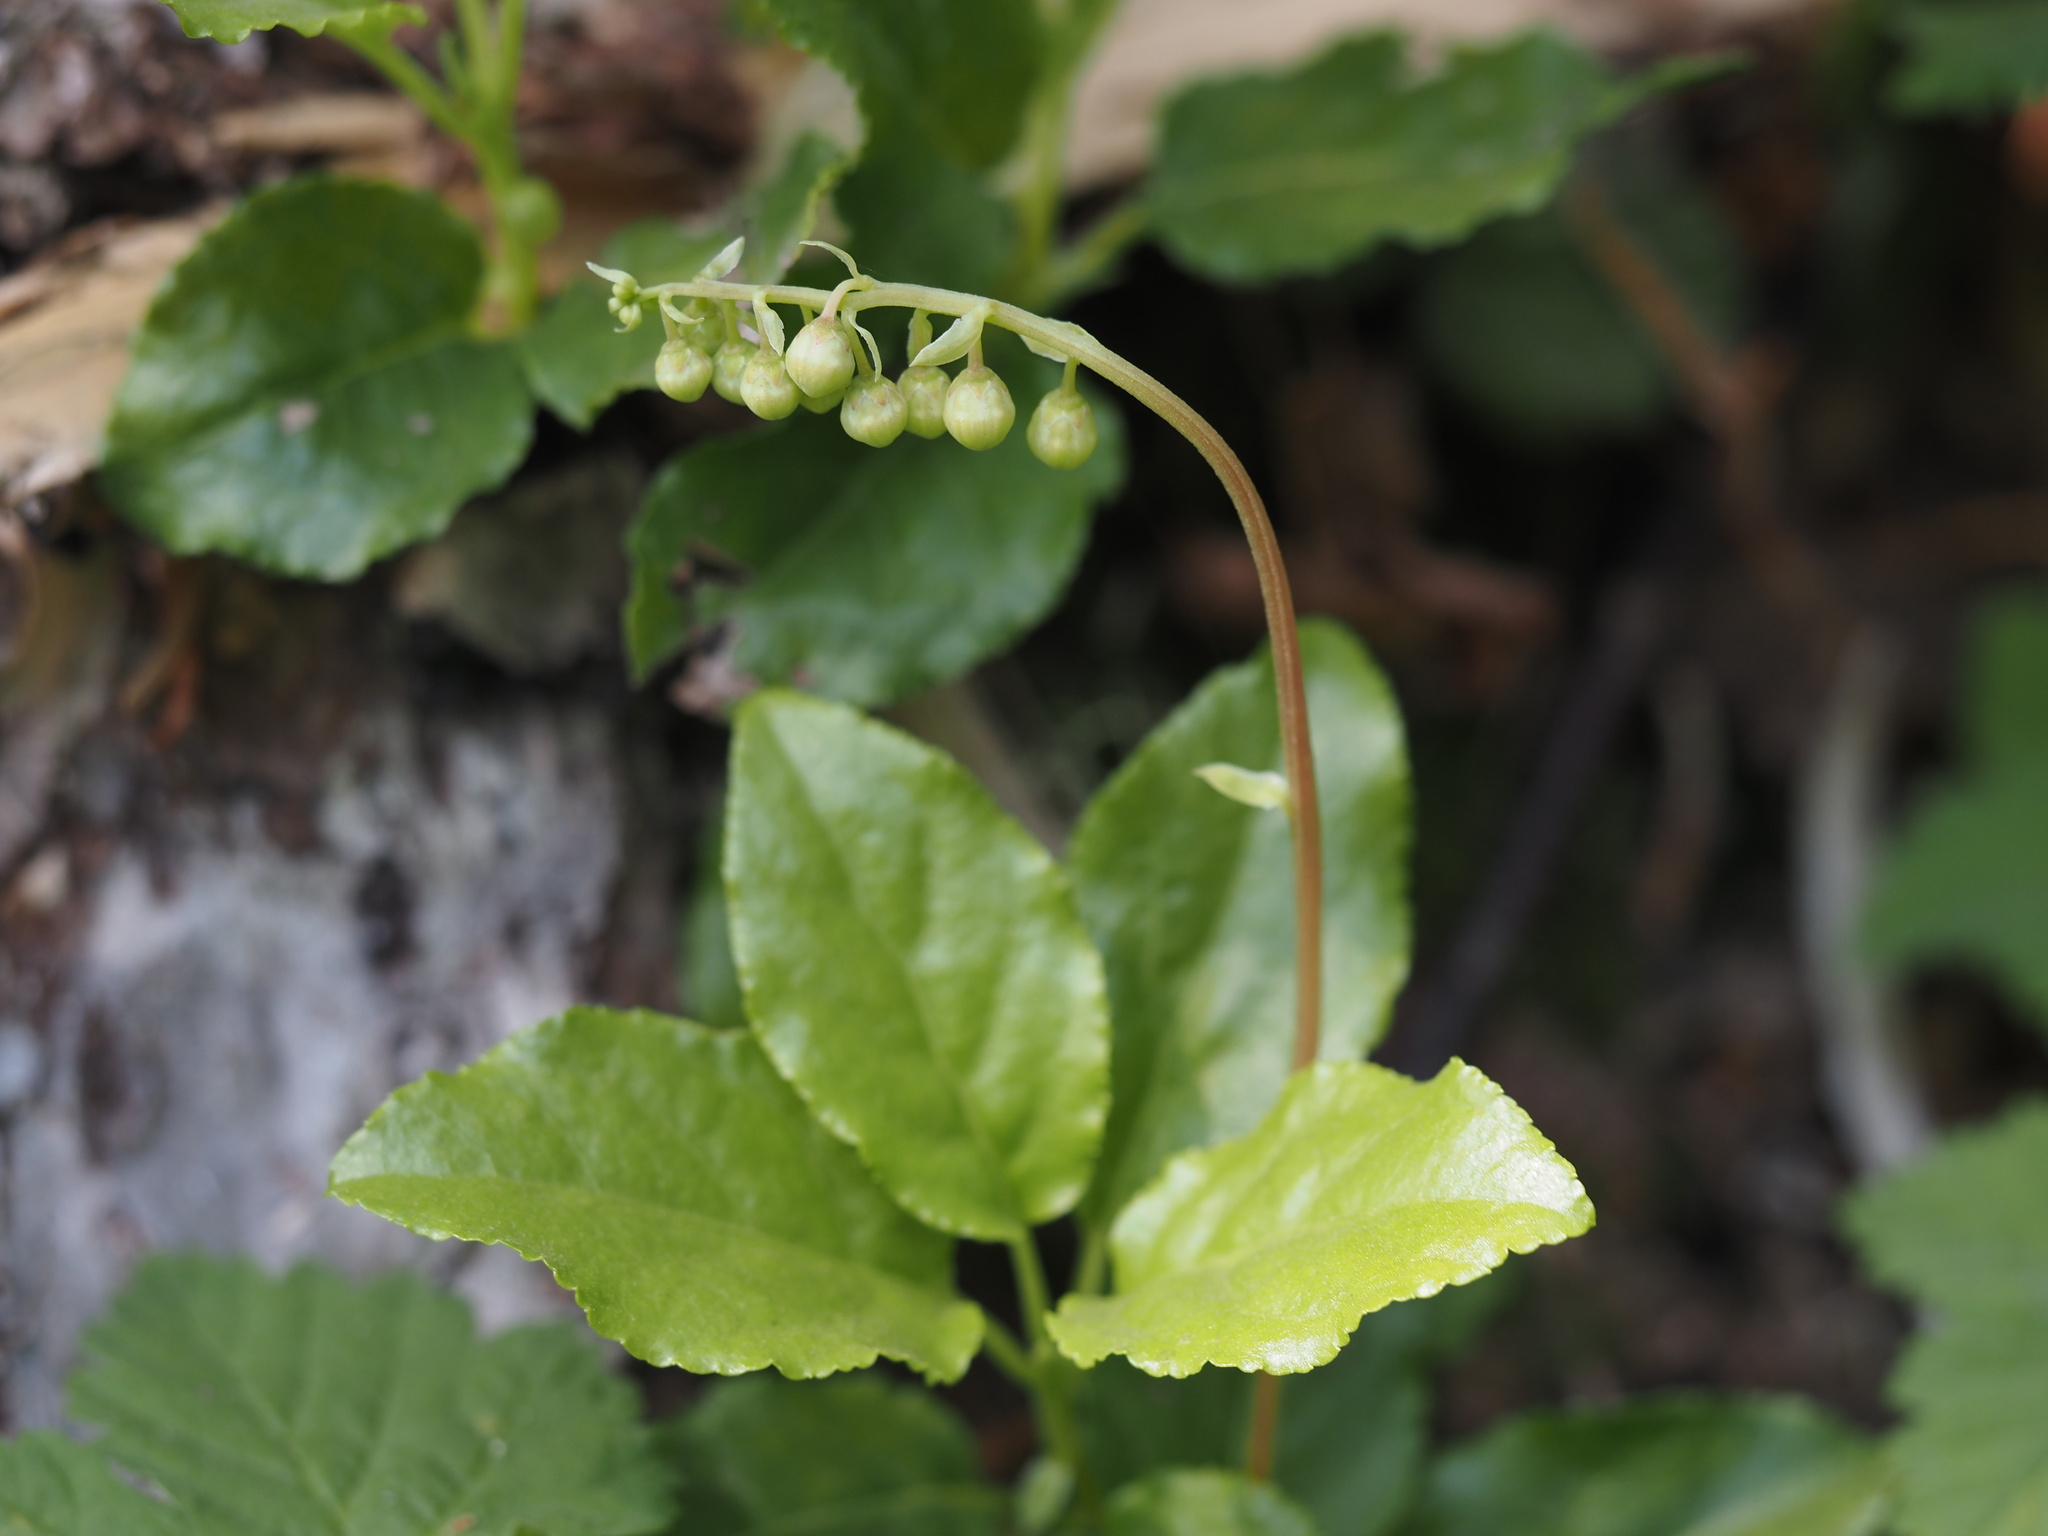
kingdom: Plantae
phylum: Tracheophyta
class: Magnoliopsida
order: Ericales
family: Ericaceae
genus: Orthilia
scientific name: Orthilia secunda
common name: One-sided orthilia
